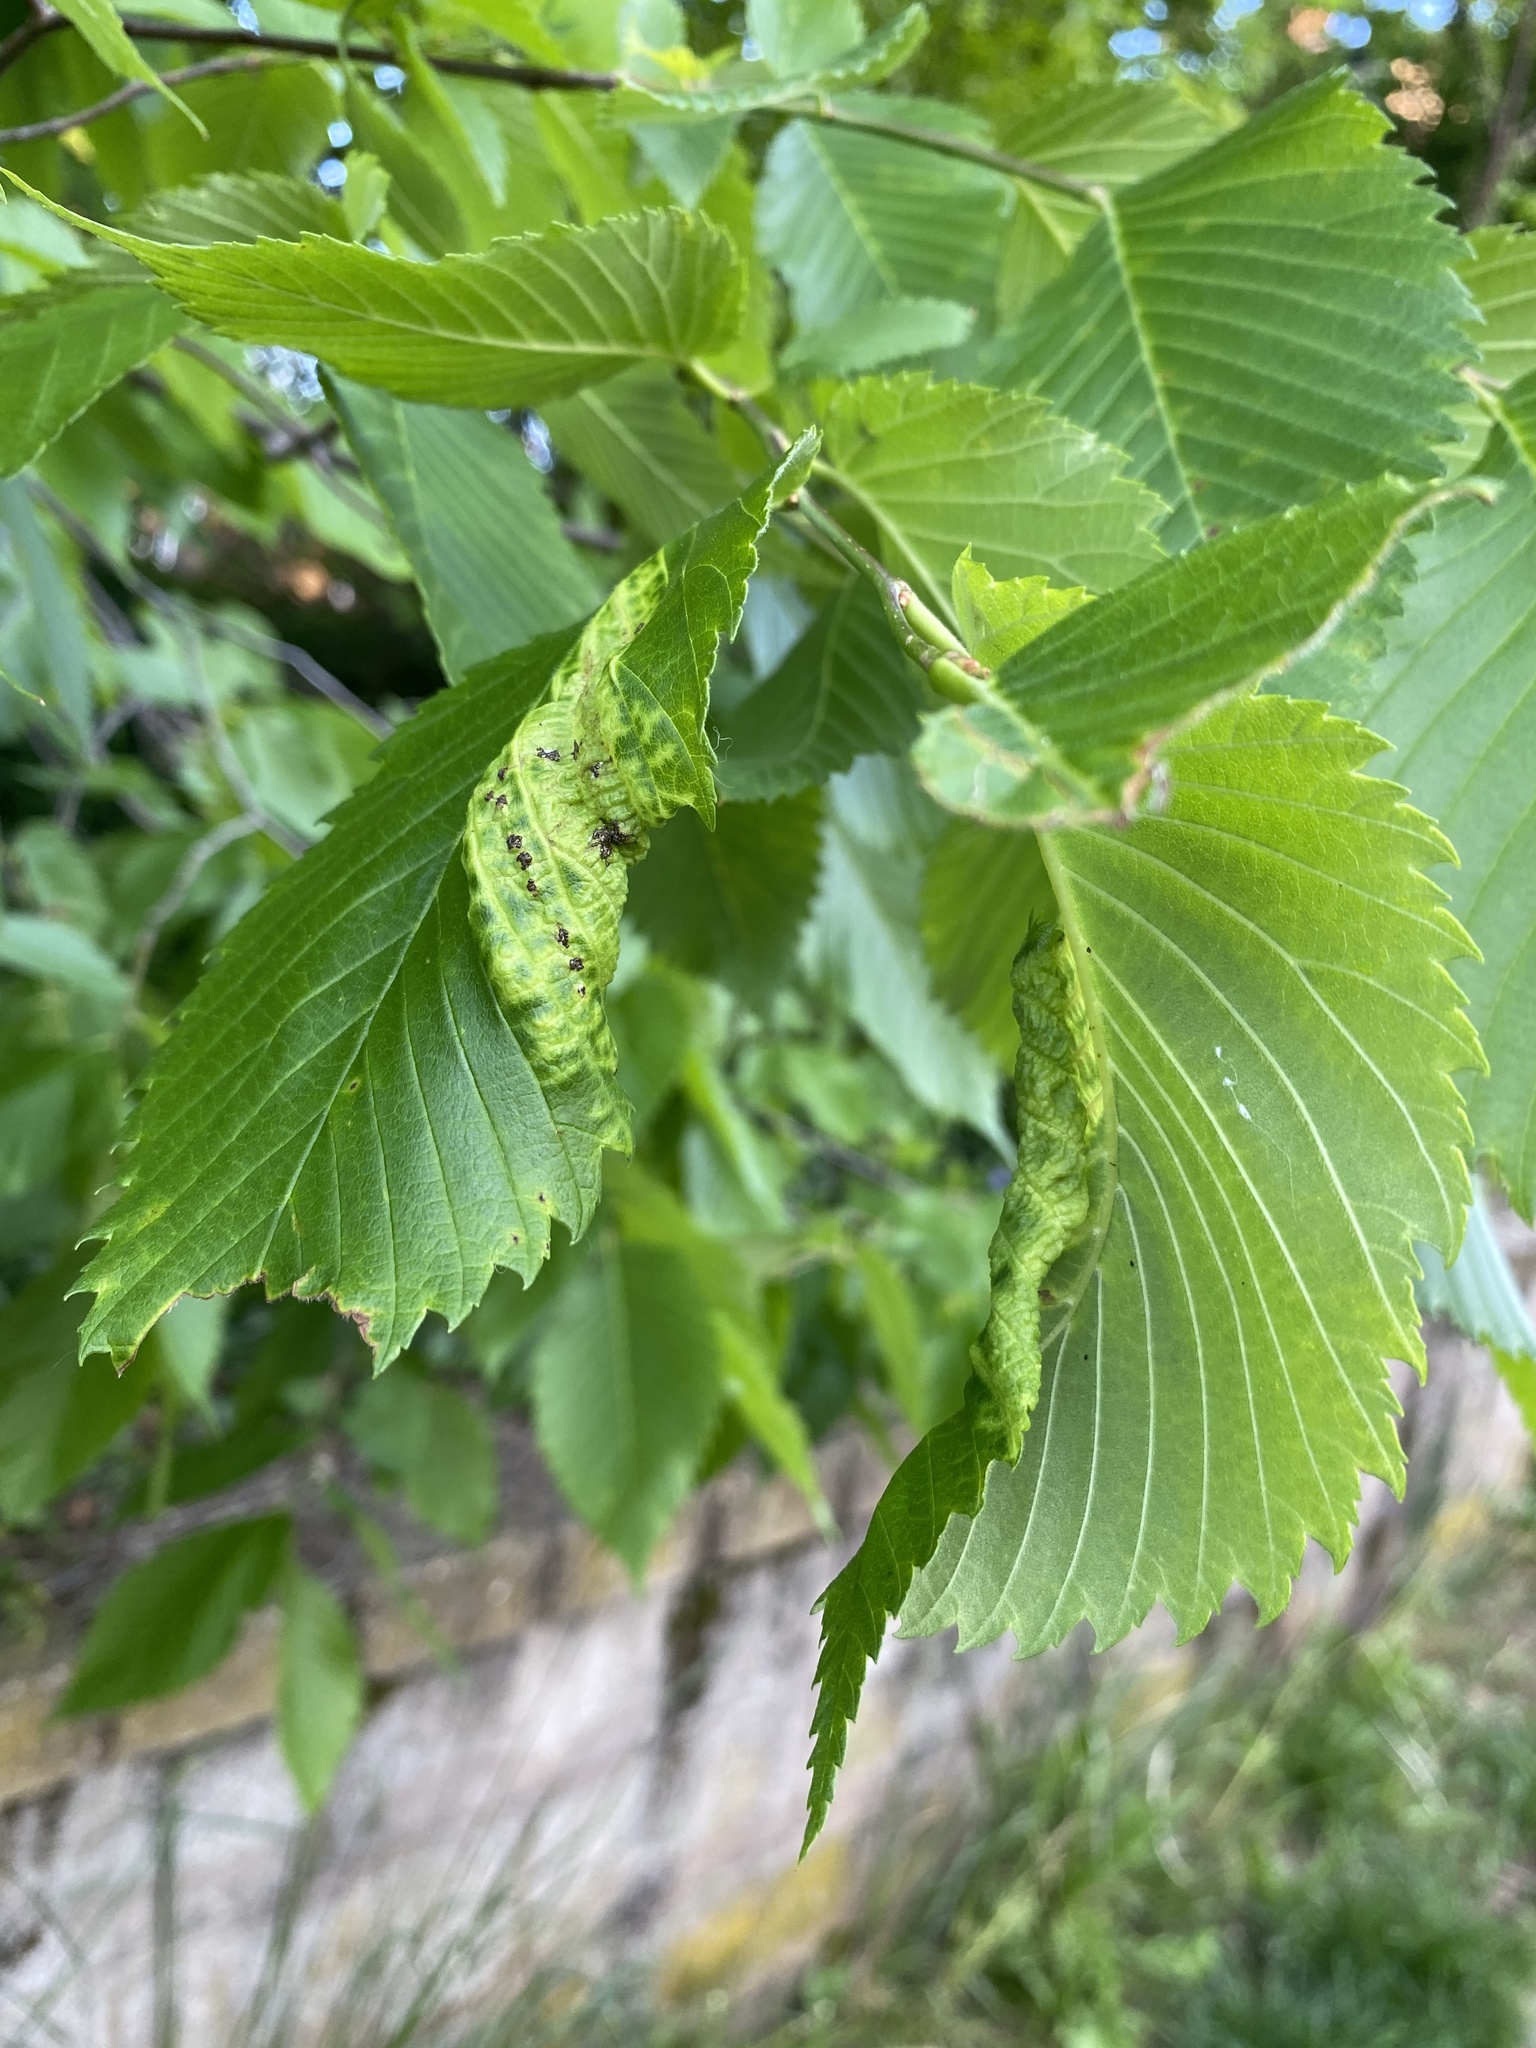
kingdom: Animalia
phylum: Arthropoda
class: Insecta
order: Hemiptera
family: Aphididae
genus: Eriosoma
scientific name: Eriosoma americanum
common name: Woolly elm aphid
